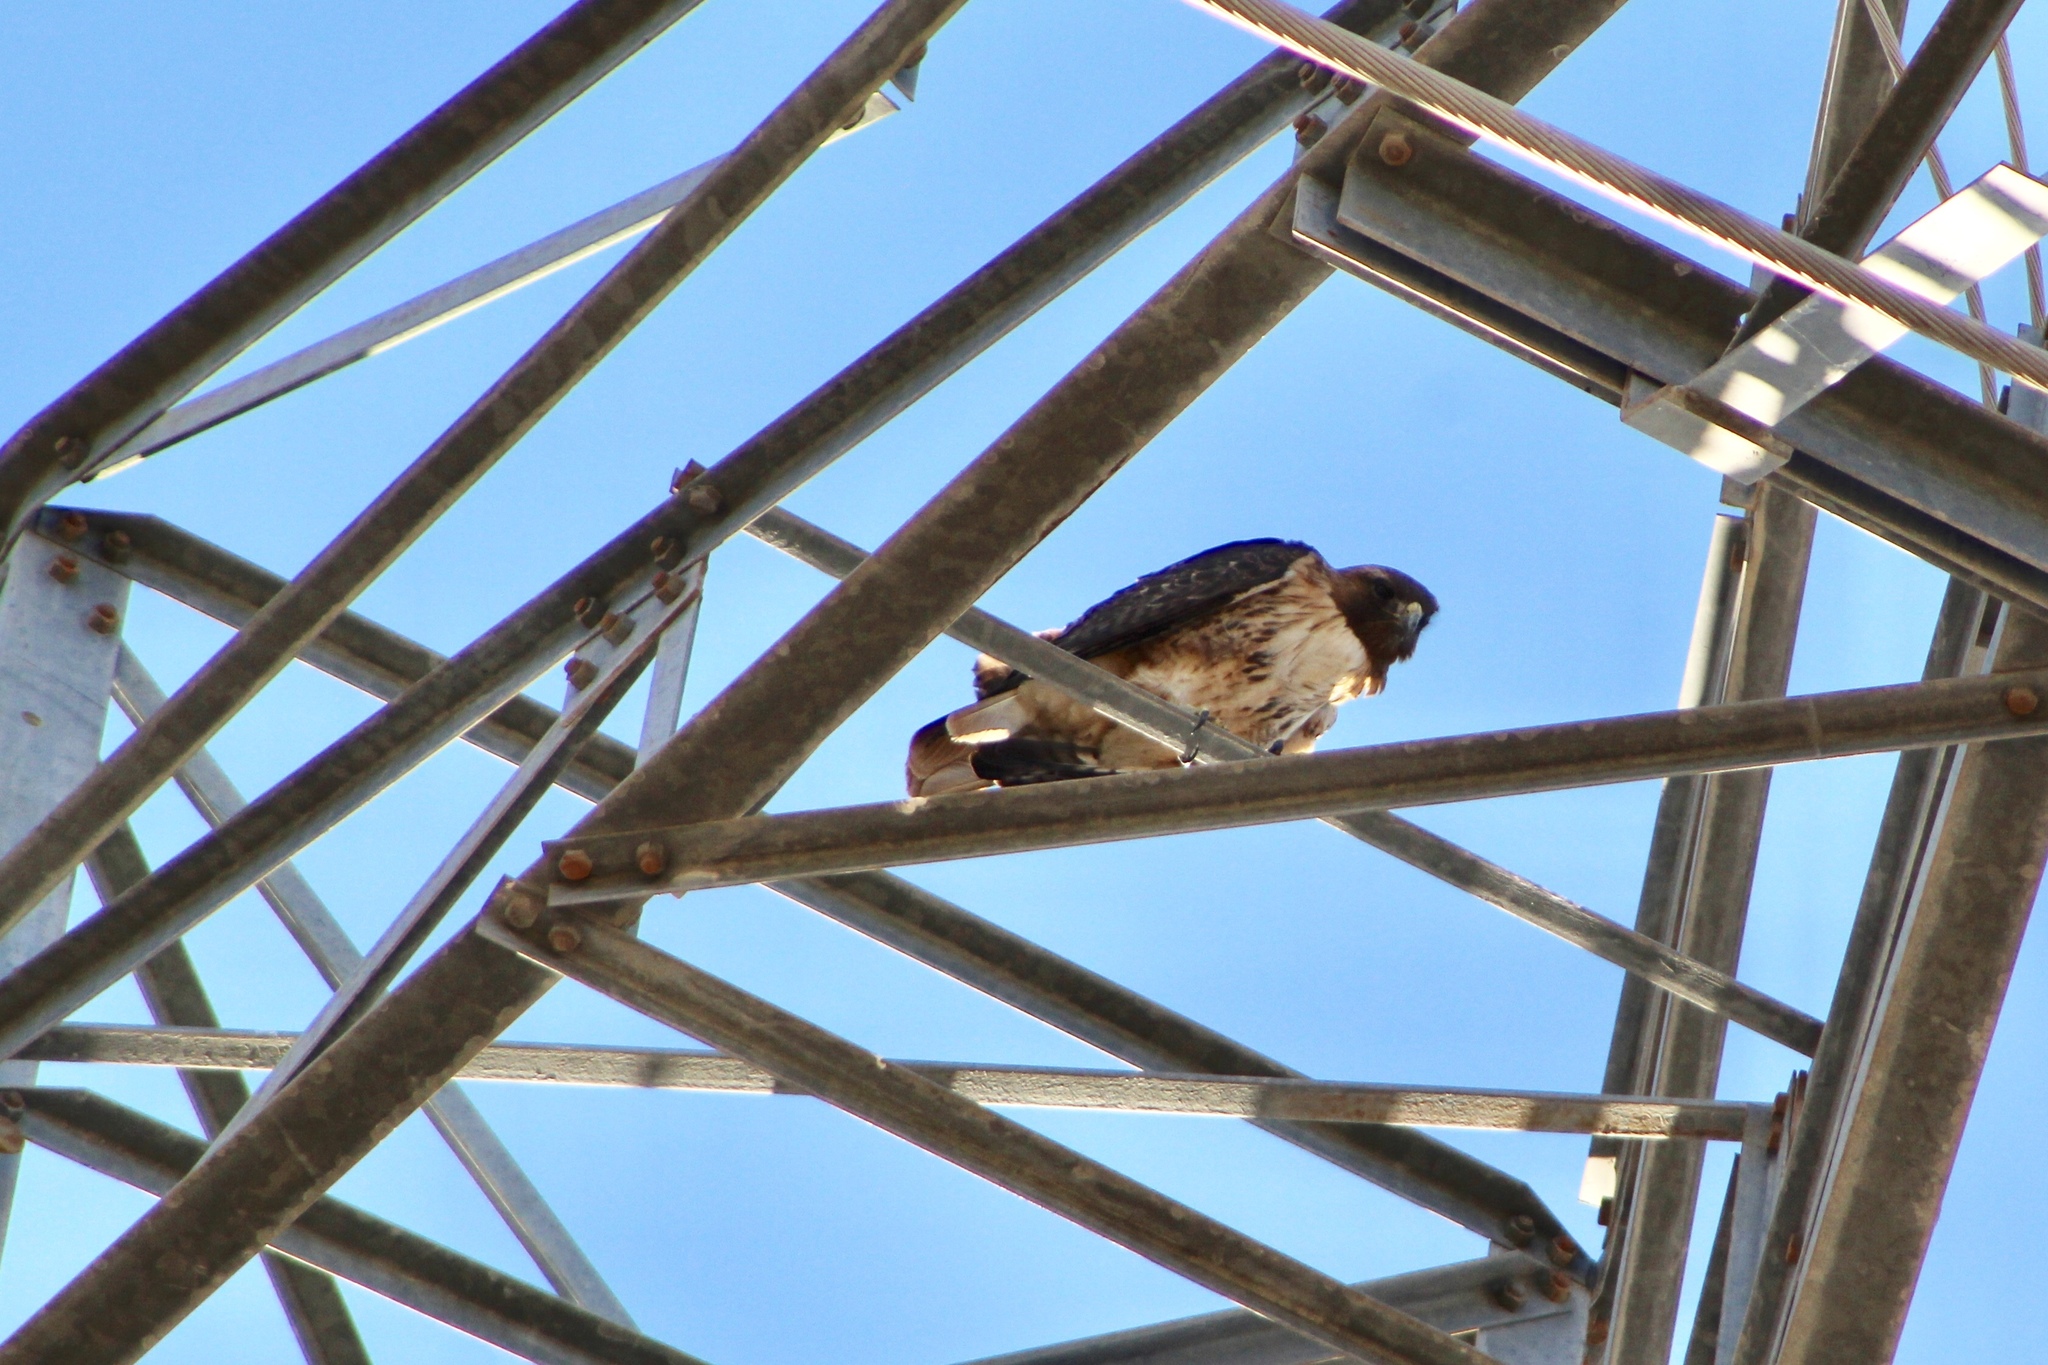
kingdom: Animalia
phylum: Chordata
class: Aves
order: Accipitriformes
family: Accipitridae
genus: Buteo
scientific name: Buteo jamaicensis
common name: Red-tailed hawk
